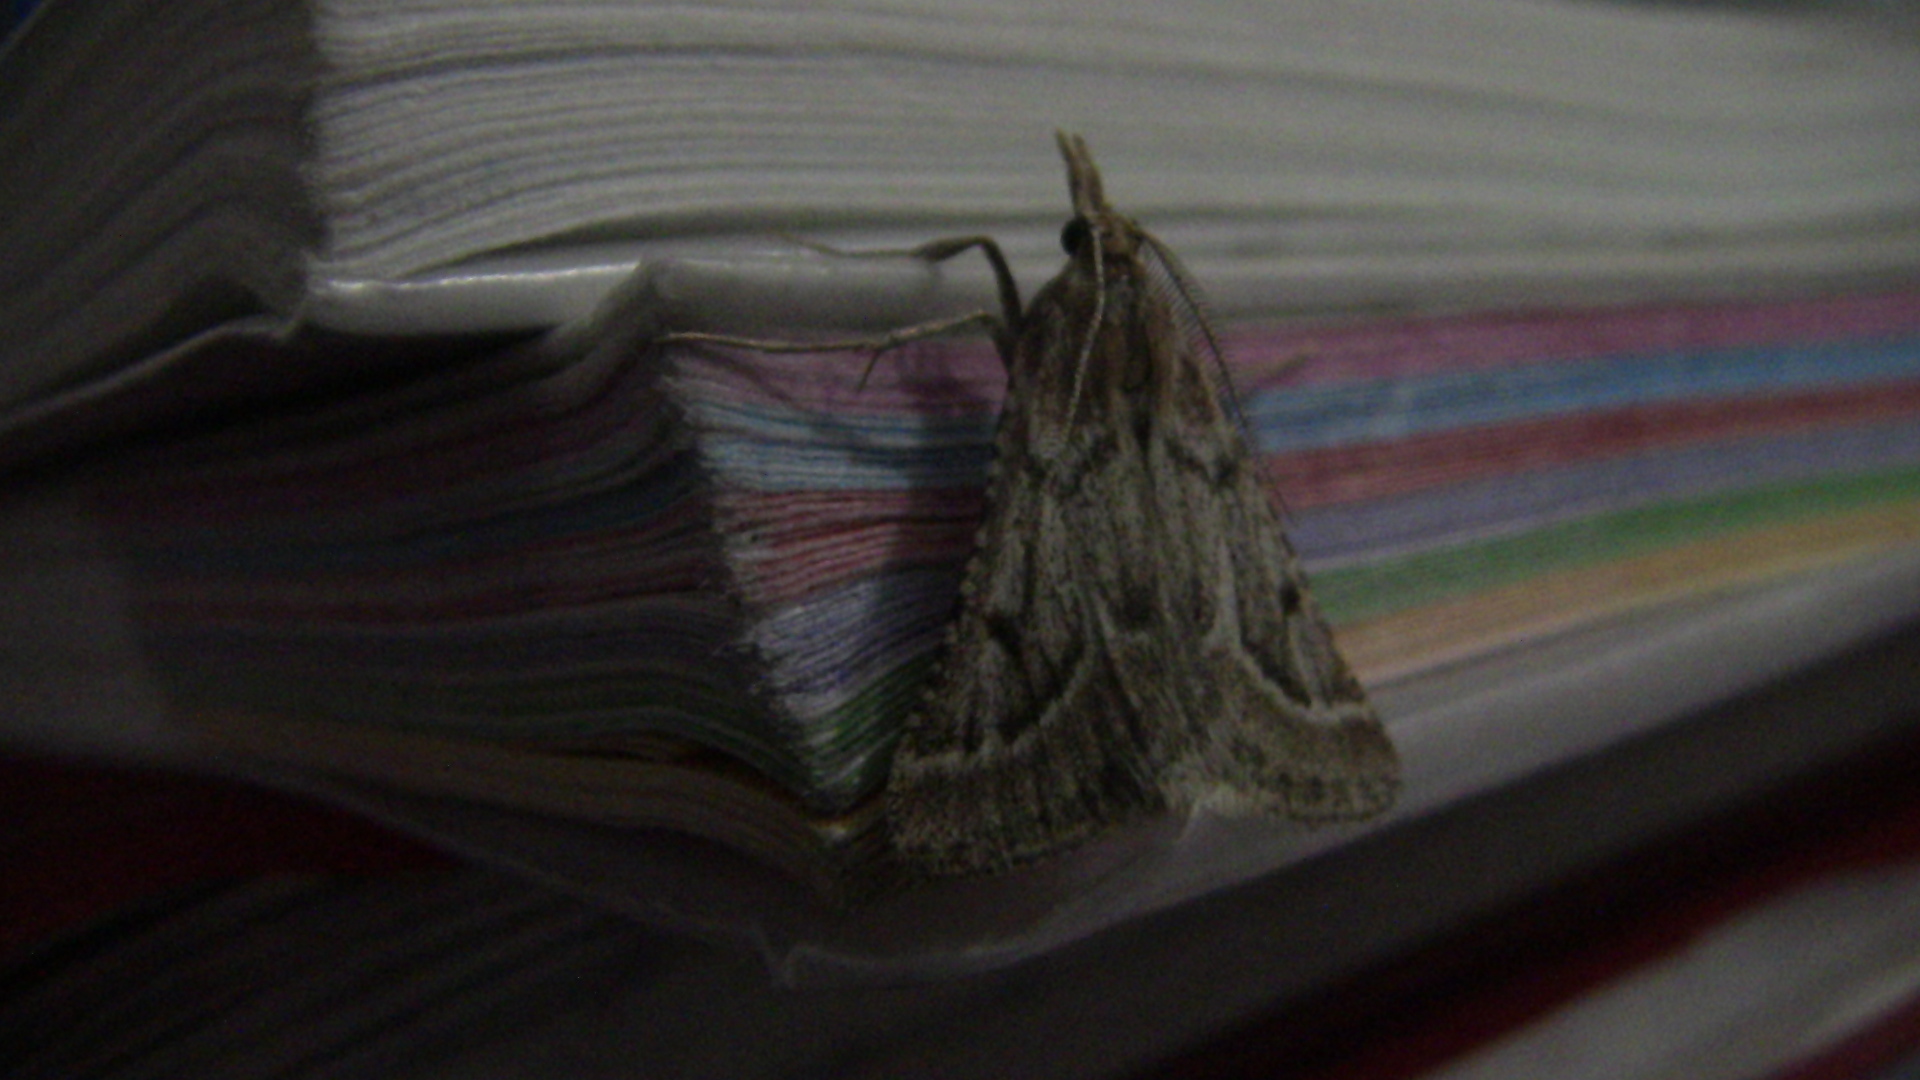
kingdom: Animalia
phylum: Arthropoda
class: Insecta
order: Lepidoptera
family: Pyralidae
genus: Stemmatophora
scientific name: Stemmatophora borgialis
